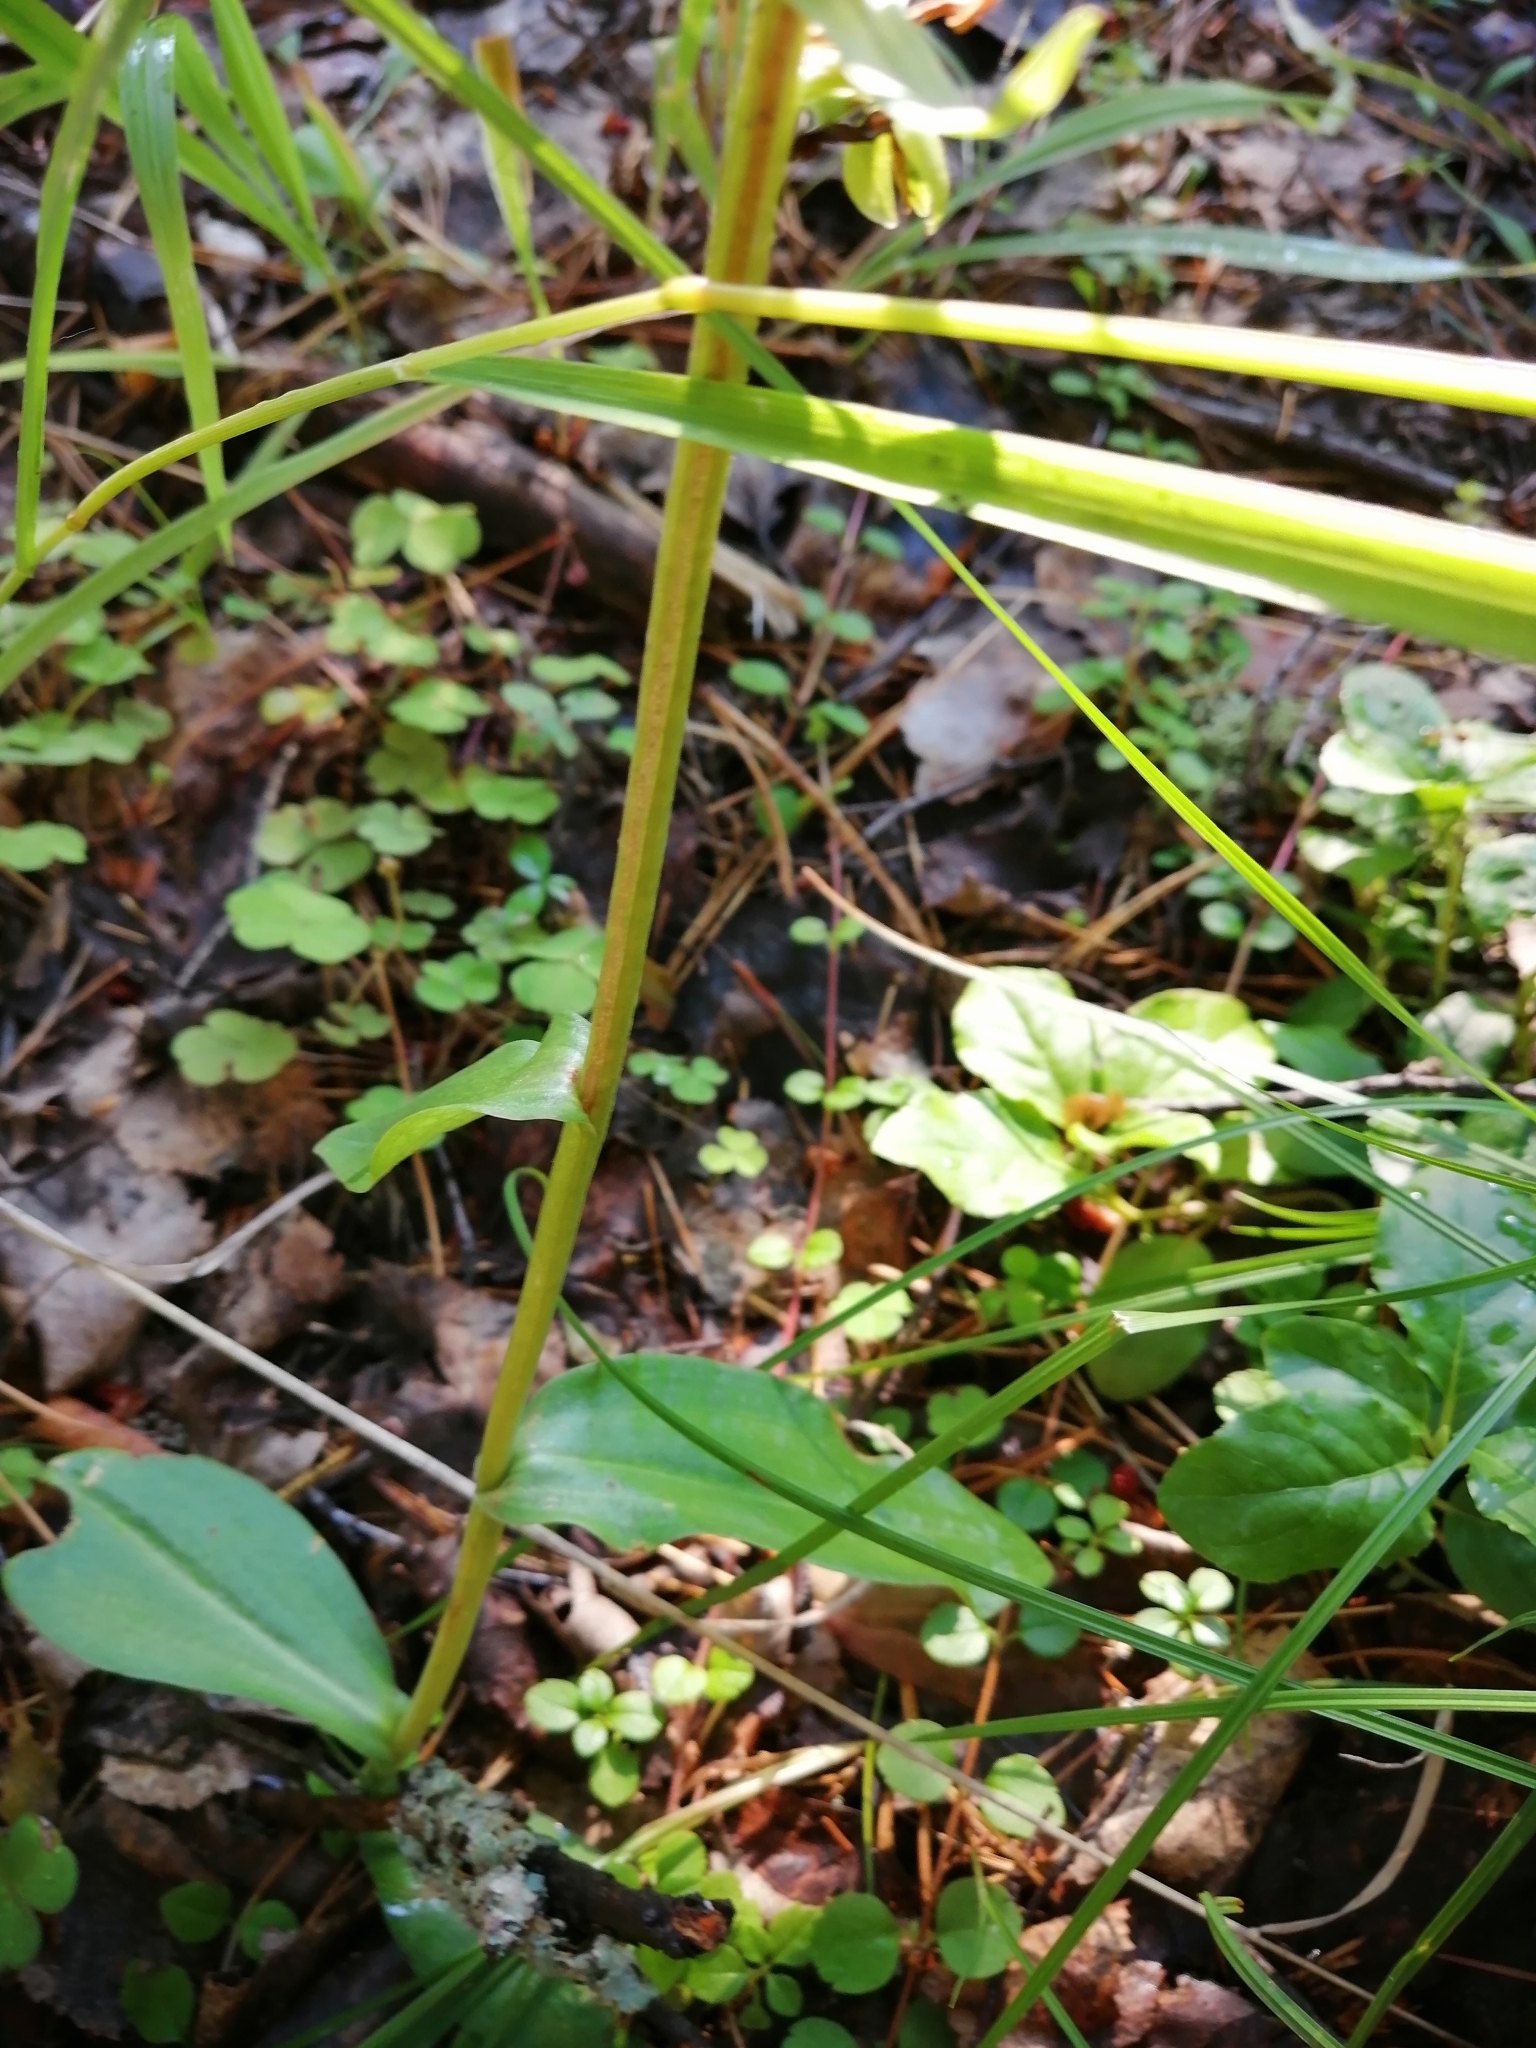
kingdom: Plantae
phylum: Tracheophyta
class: Liliopsida
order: Asparagales
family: Orchidaceae
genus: Dactylorhiza
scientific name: Dactylorhiza viridis
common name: Longbract frog orchid
